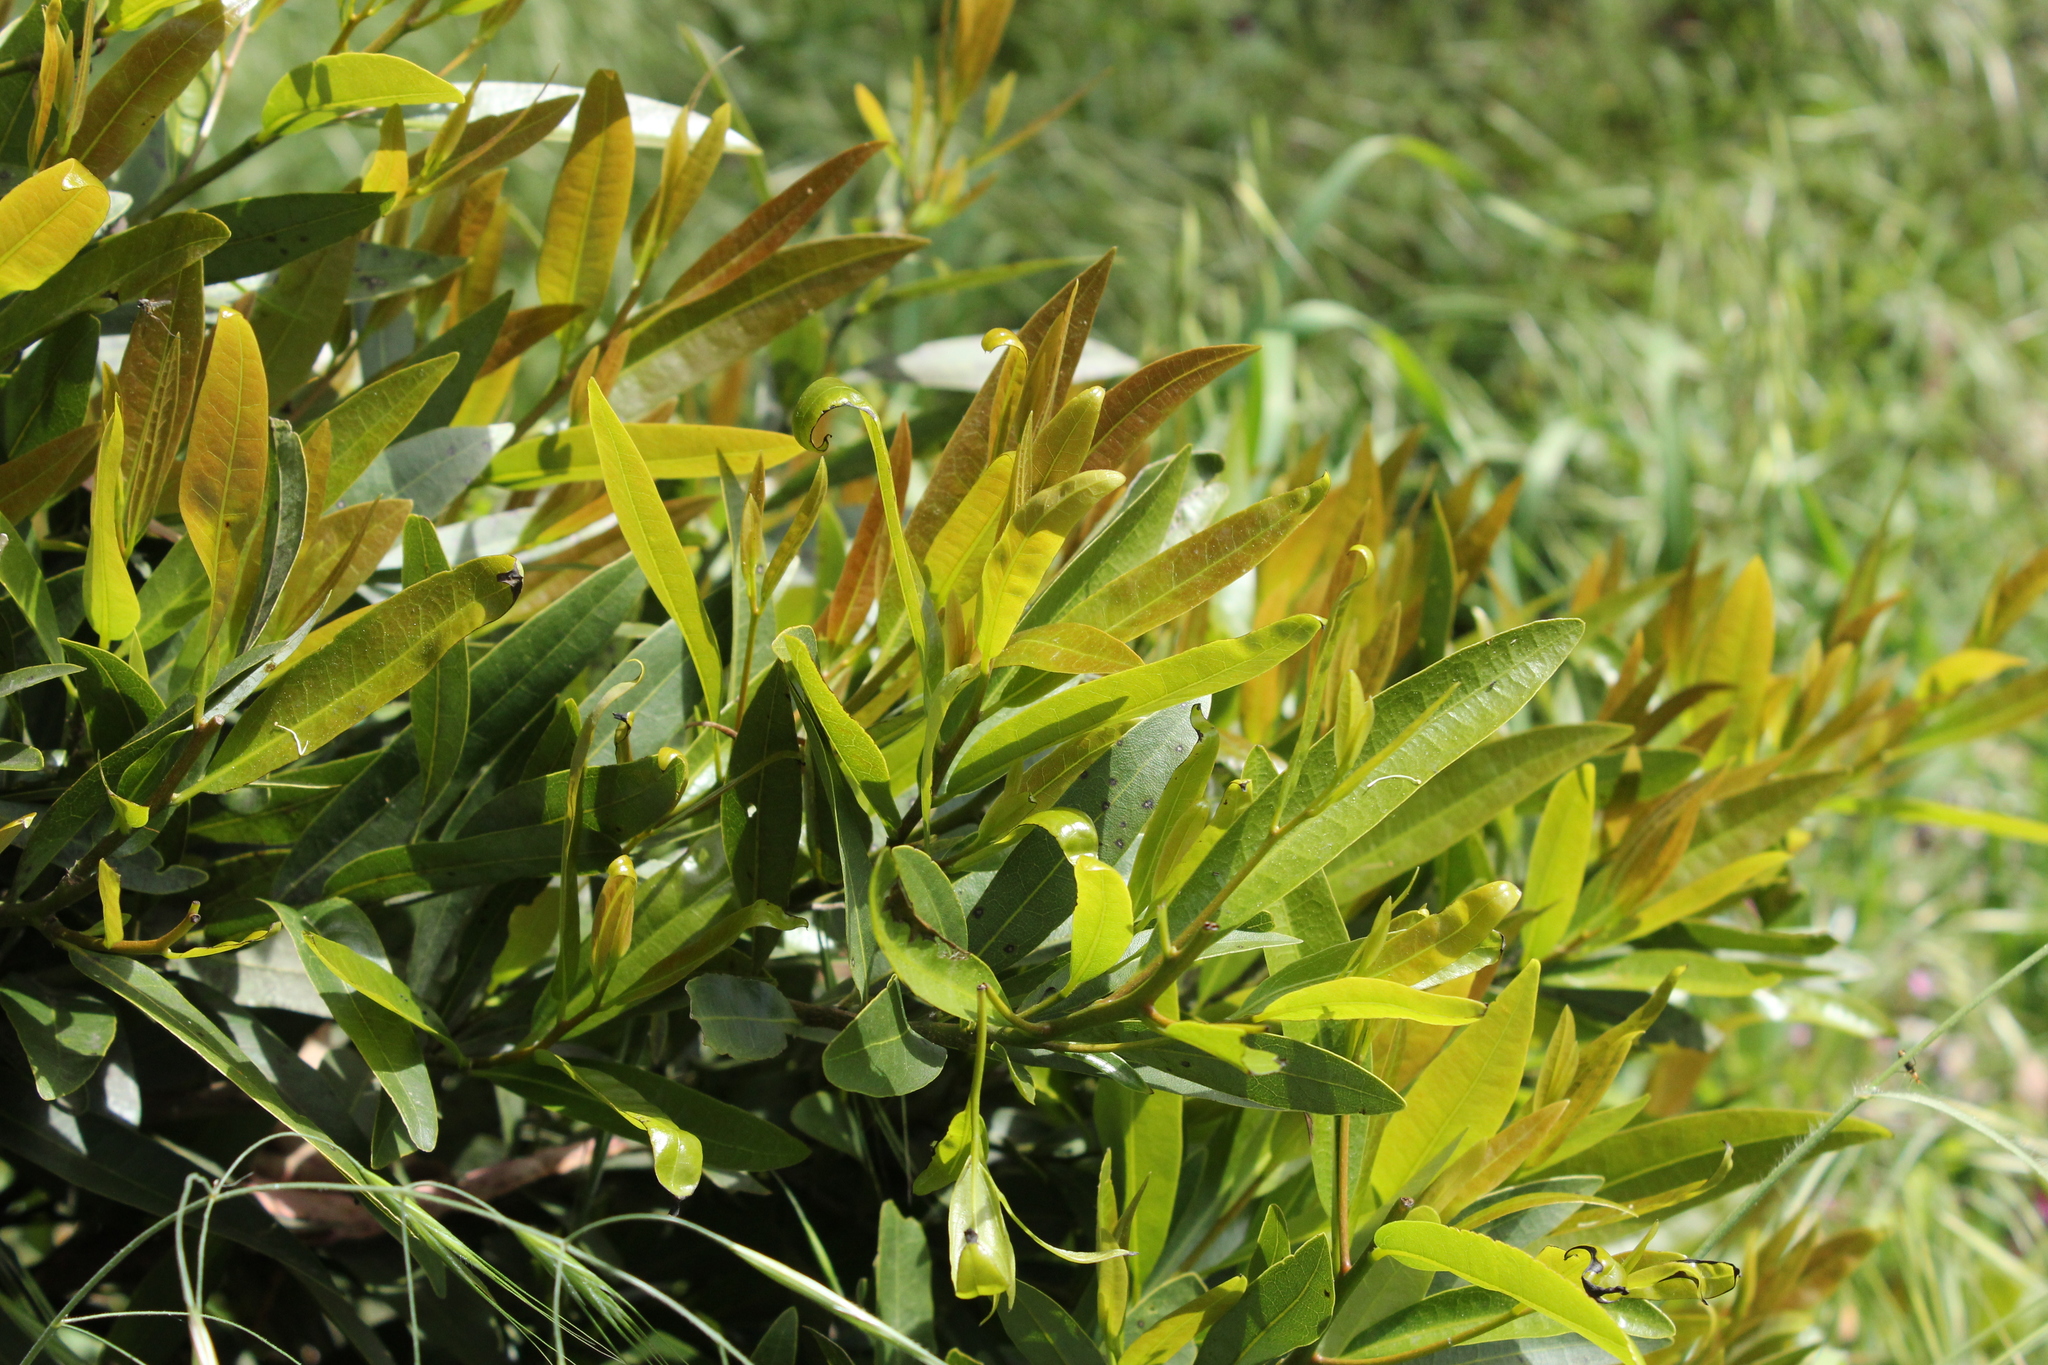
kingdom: Plantae
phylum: Tracheophyta
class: Magnoliopsida
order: Laurales
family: Lauraceae
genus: Umbellularia
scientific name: Umbellularia californica
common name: California bay
